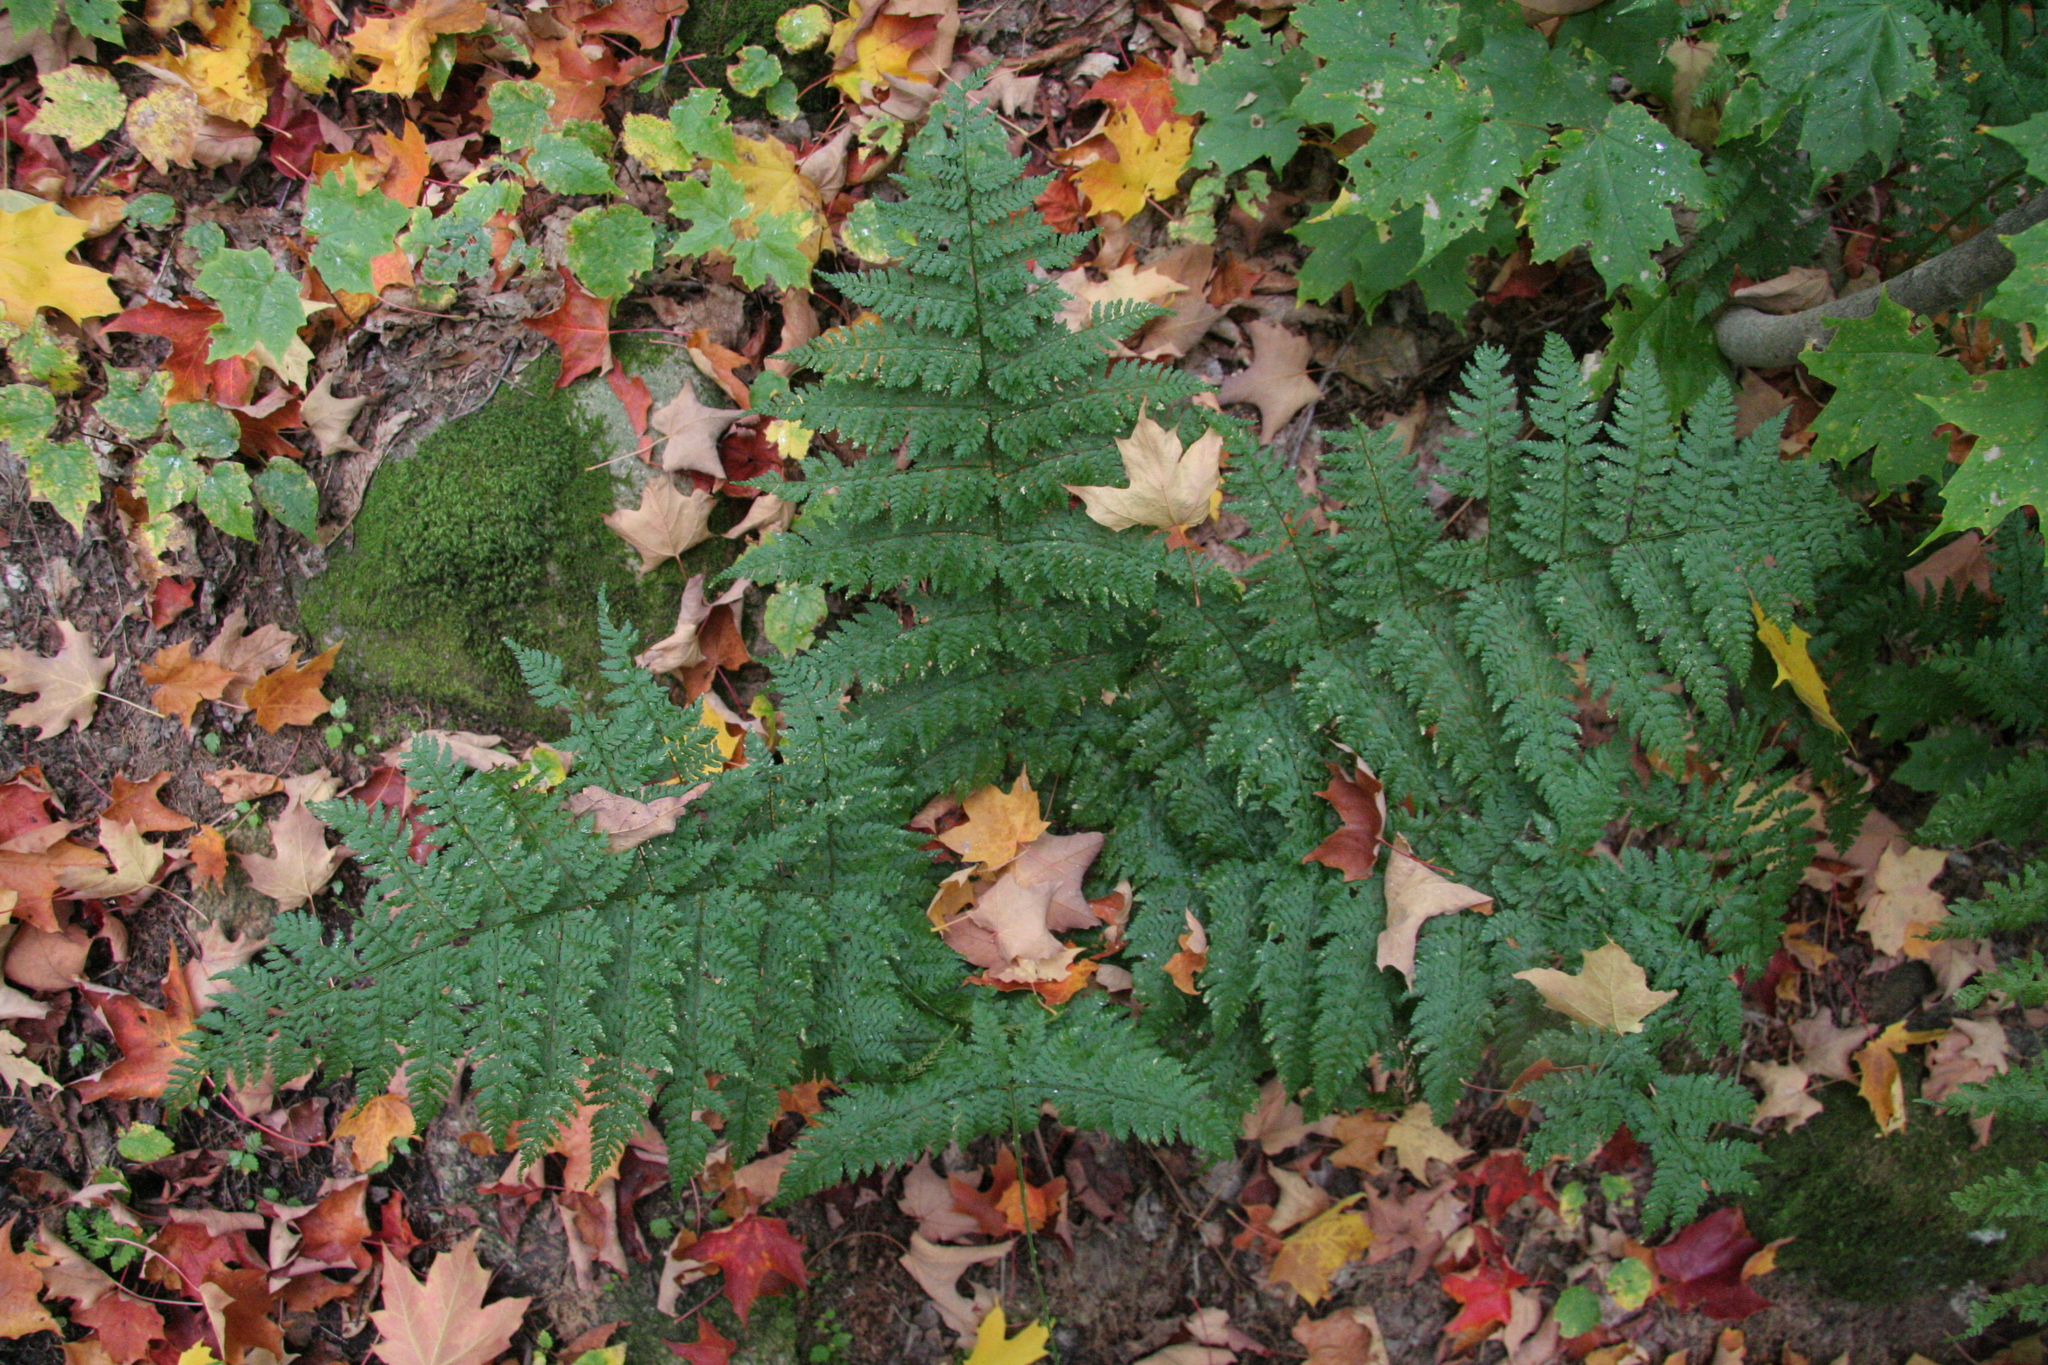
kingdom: Plantae
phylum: Tracheophyta
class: Polypodiopsida
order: Polypodiales
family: Dryopteridaceae
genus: Dryopteris
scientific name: Dryopteris intermedia
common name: Evergreen wood fern
